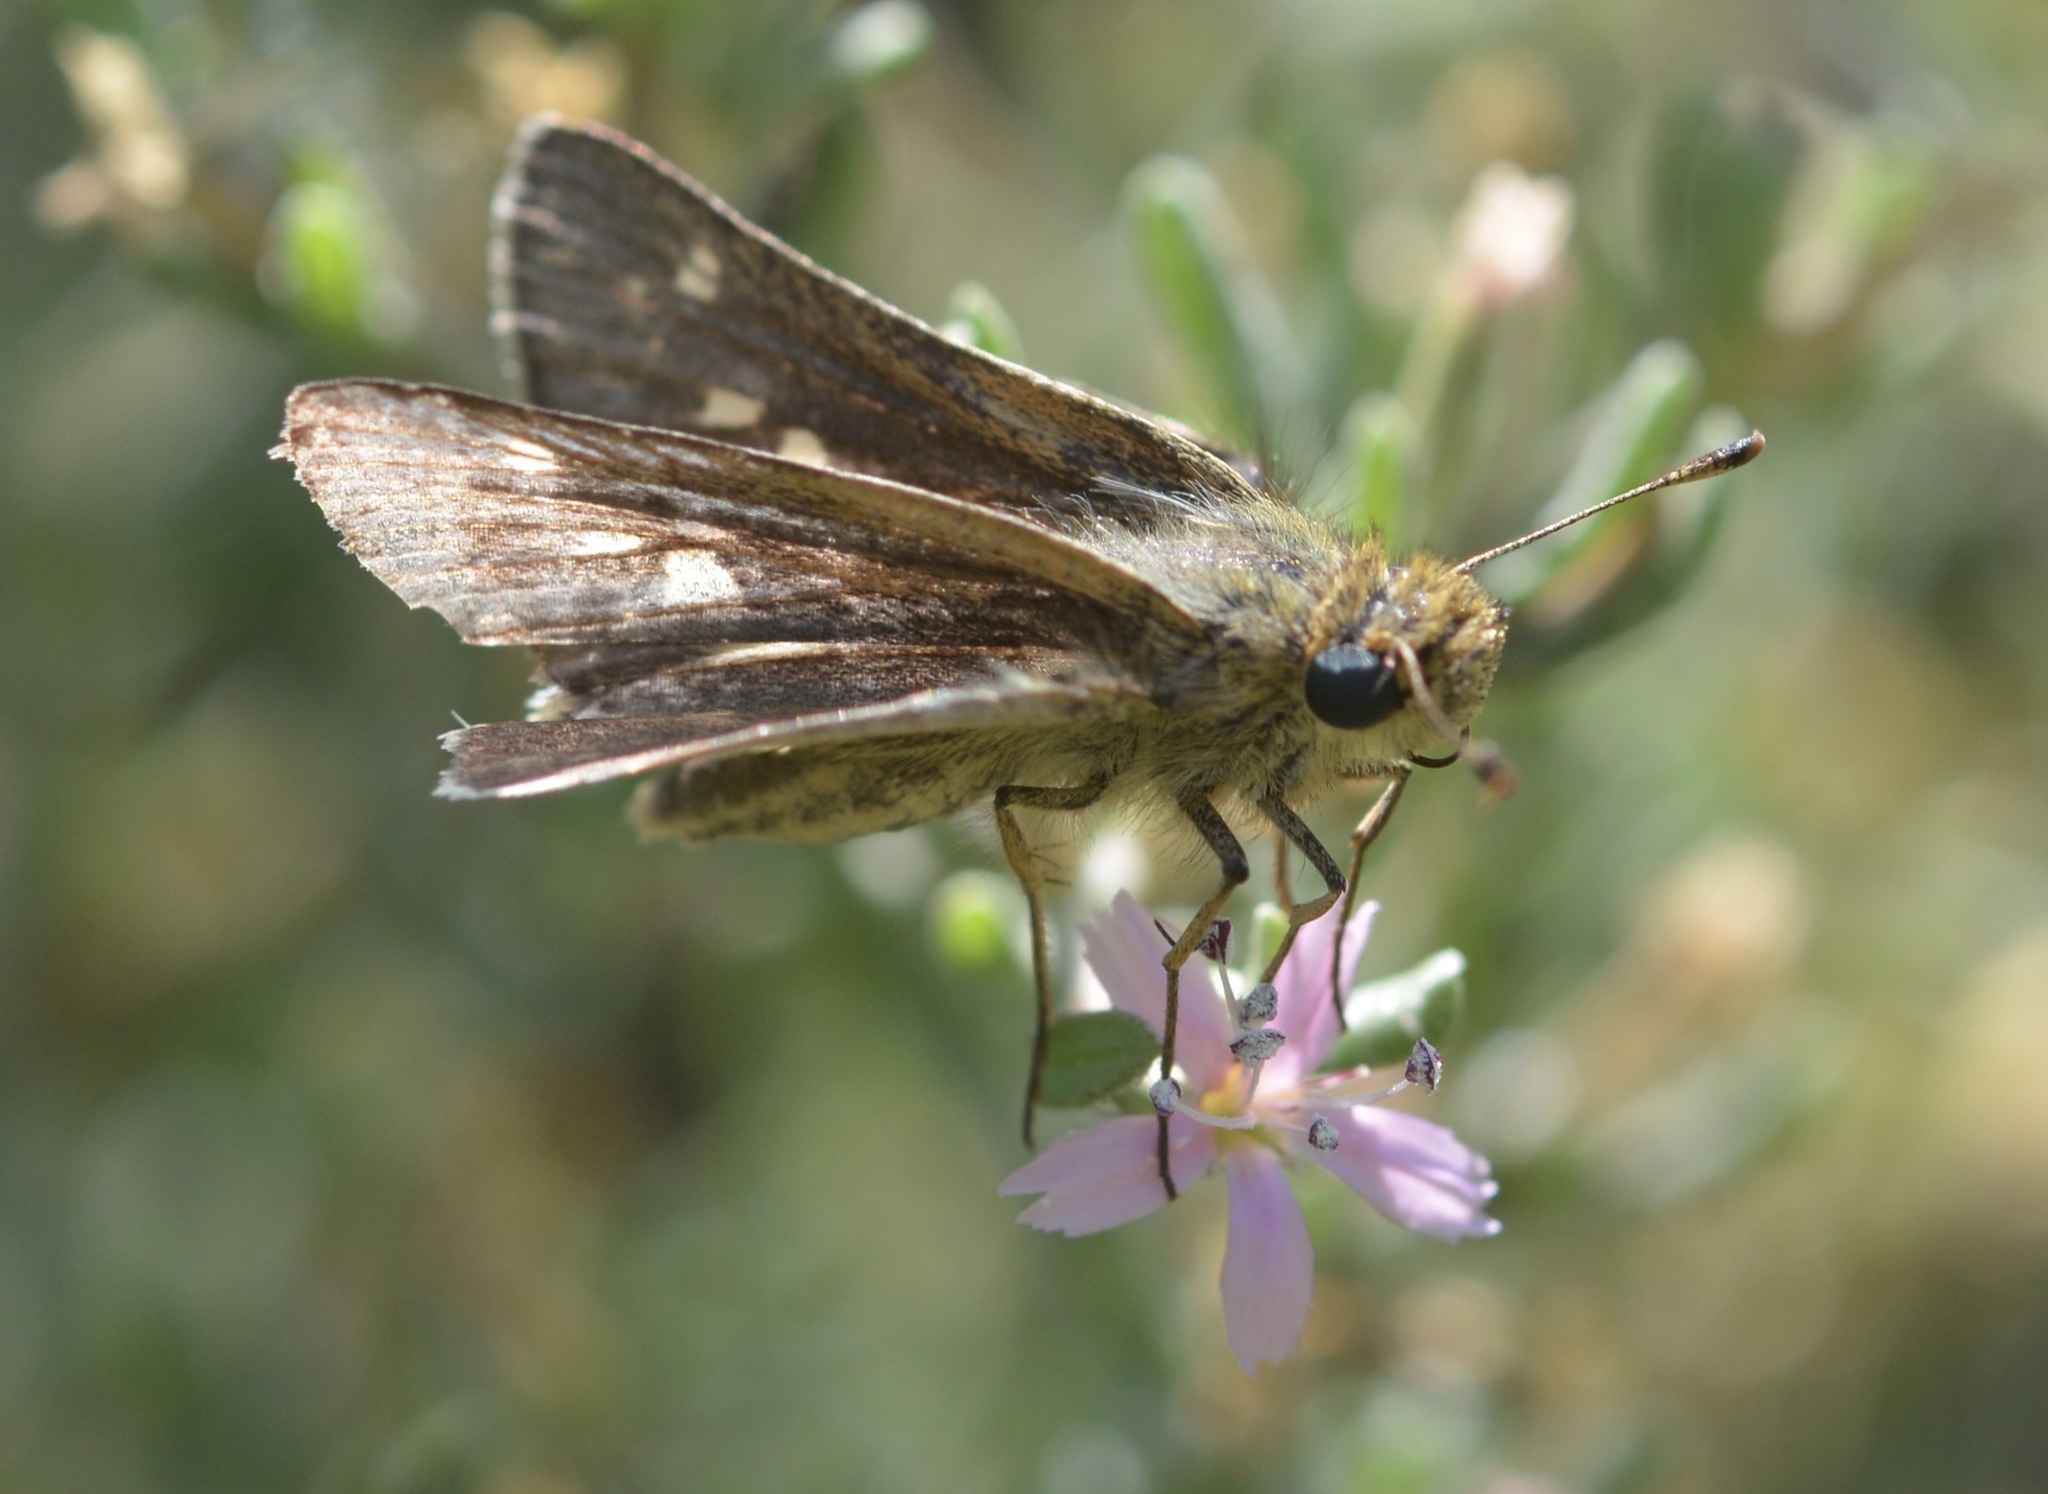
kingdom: Animalia
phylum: Arthropoda
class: Insecta
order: Lepidoptera
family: Hesperiidae
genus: Panoquina
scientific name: Panoquina errans
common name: Wandering skipper
